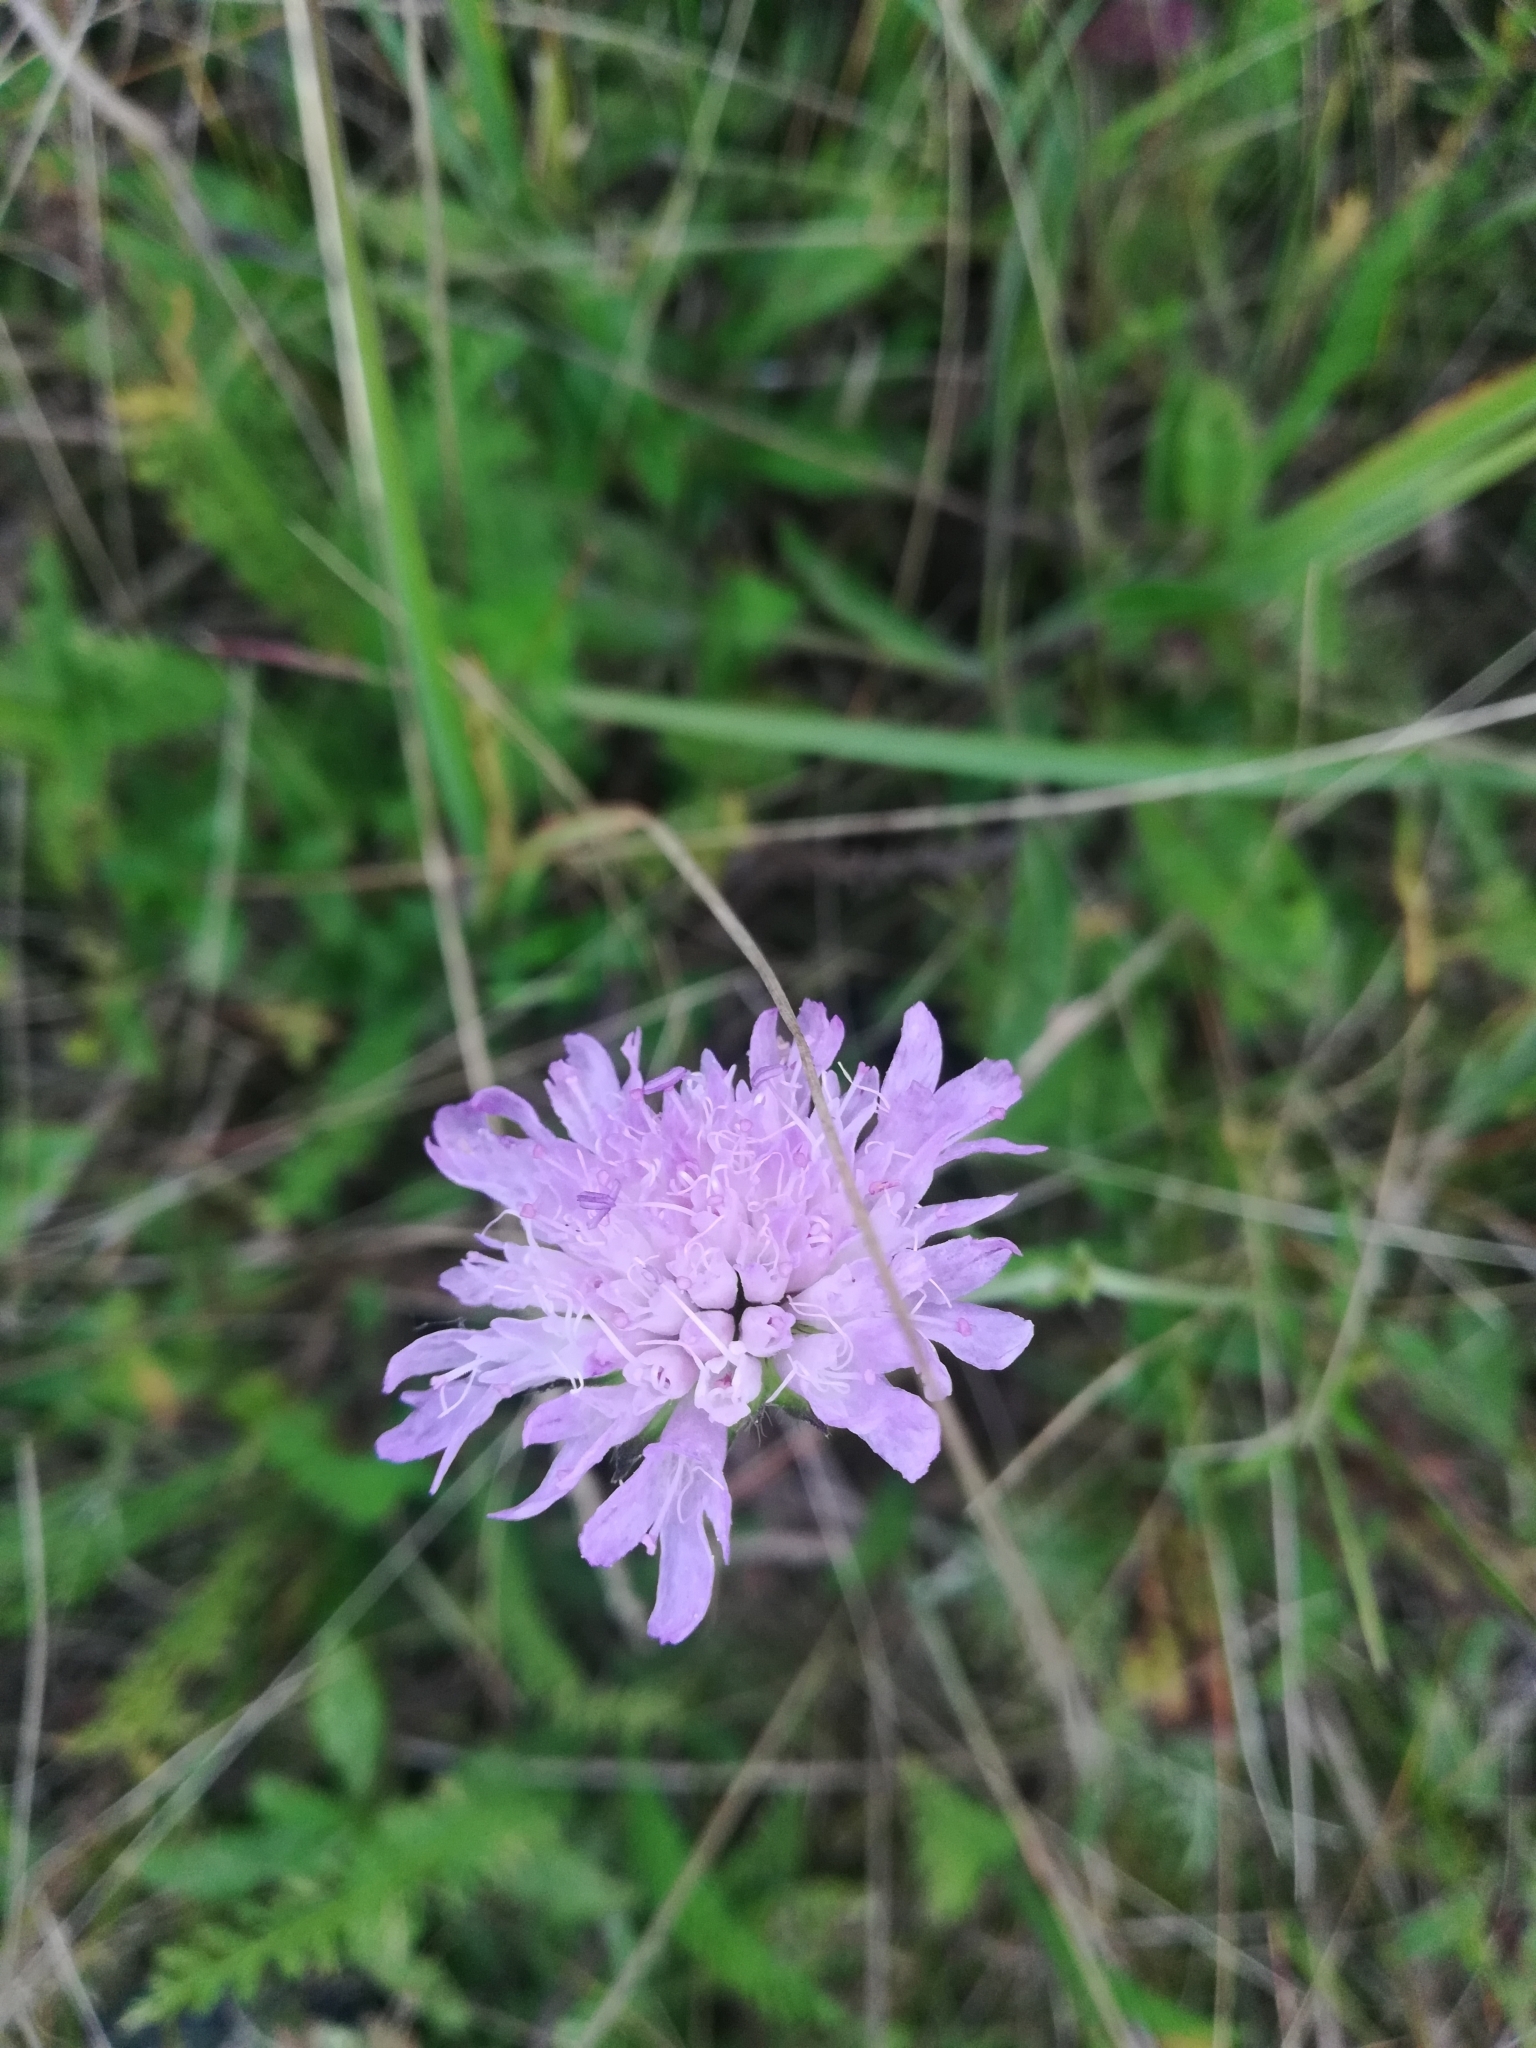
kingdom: Plantae
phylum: Tracheophyta
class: Magnoliopsida
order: Dipsacales
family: Caprifoliaceae
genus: Knautia
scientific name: Knautia arvensis
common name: Field scabiosa
